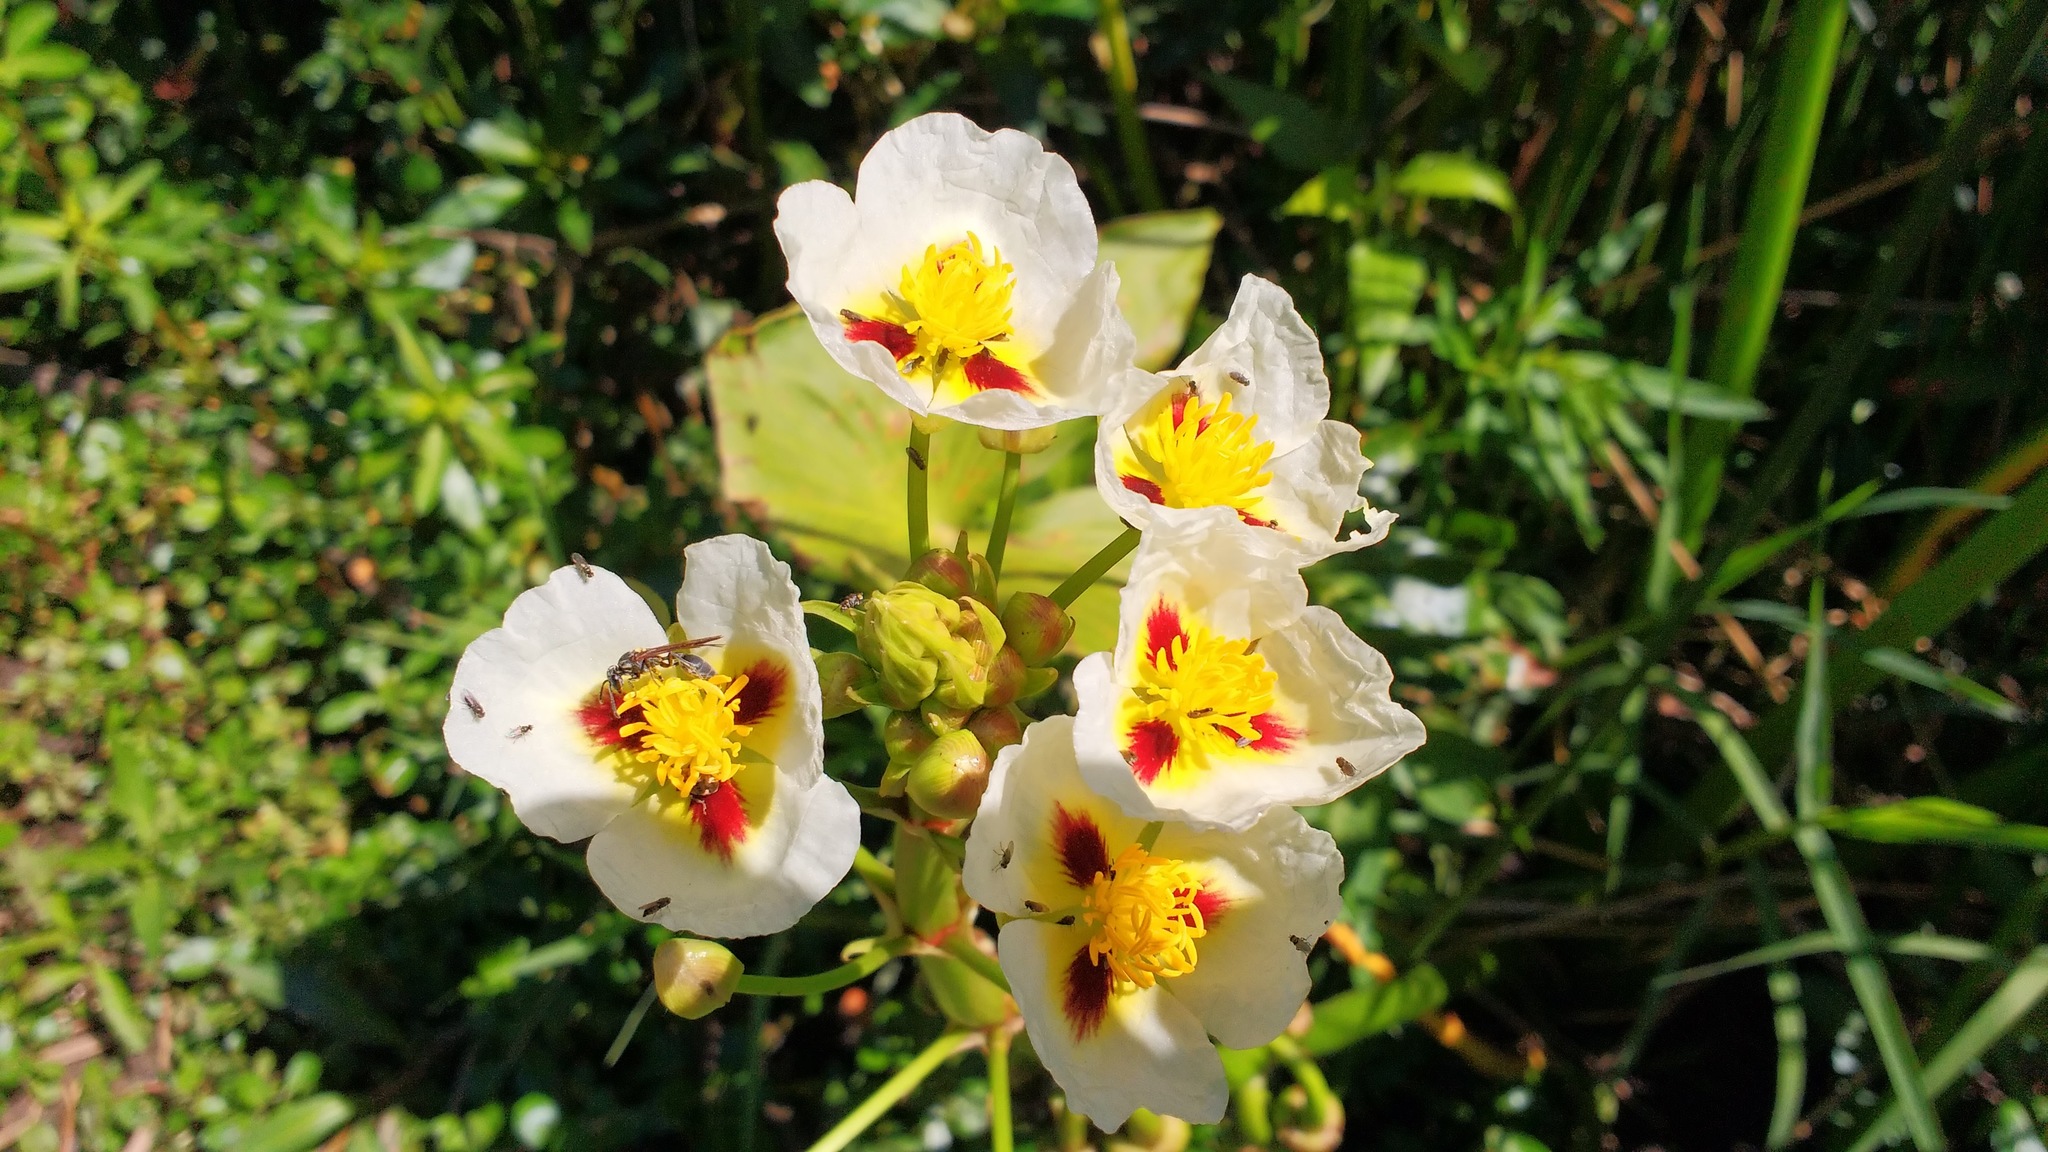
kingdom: Plantae
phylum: Tracheophyta
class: Liliopsida
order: Alismatales
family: Alismataceae
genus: Sagittaria
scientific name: Sagittaria montevidensis
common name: Giant arrowhead
